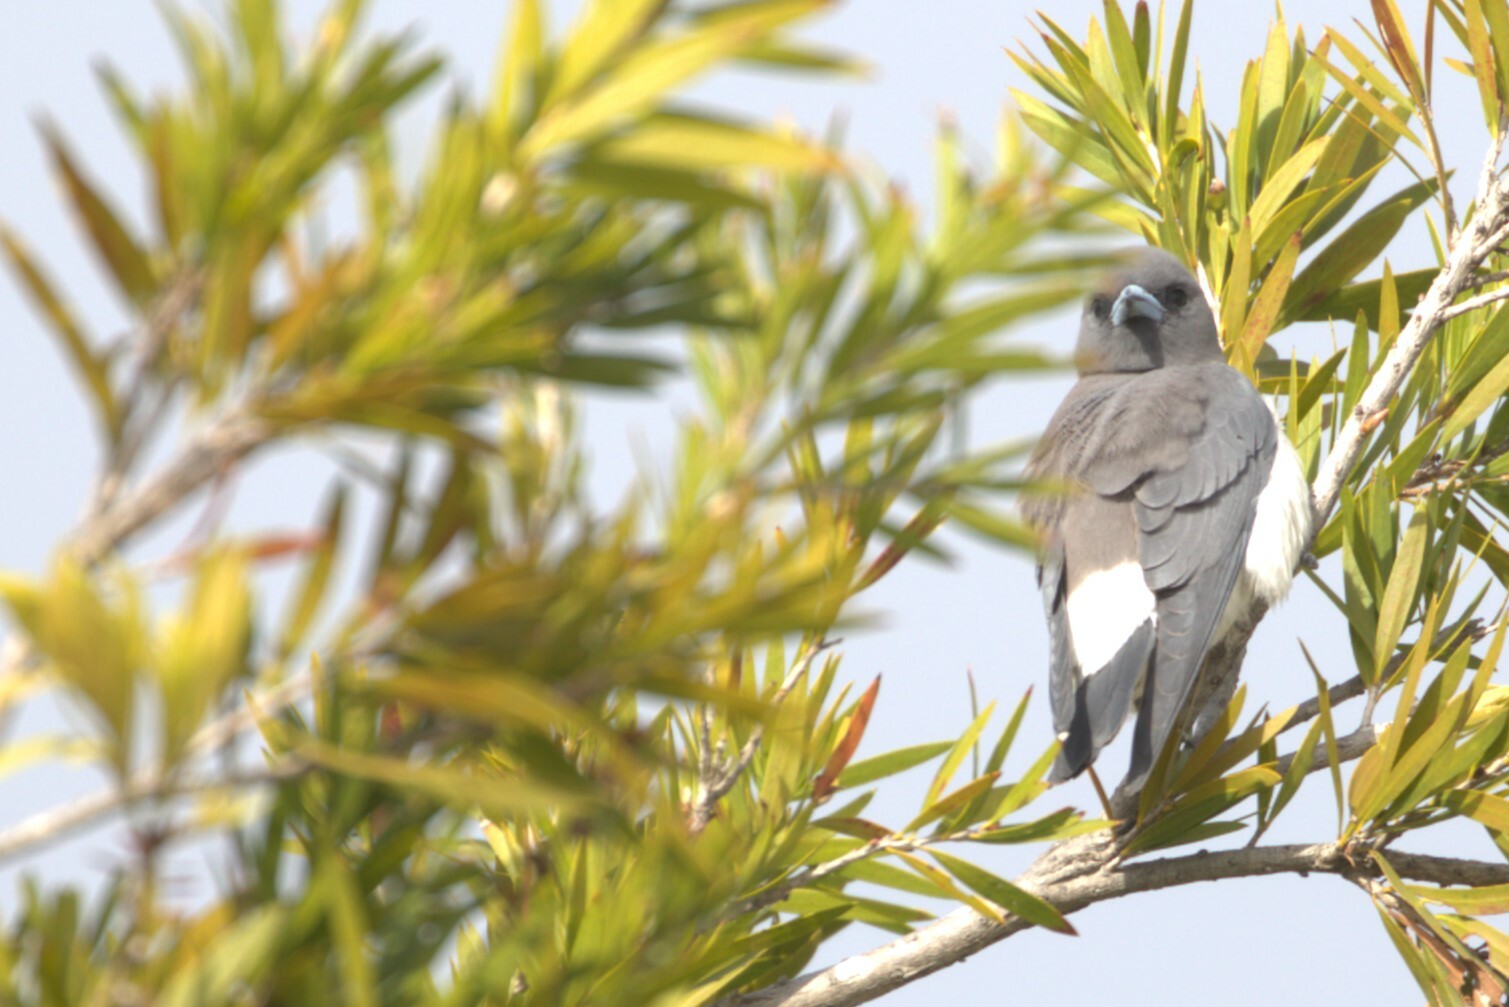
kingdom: Animalia
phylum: Chordata
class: Aves
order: Passeriformes
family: Artamidae
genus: Artamus
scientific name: Artamus leucoryn
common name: White-breasted woodswallow
